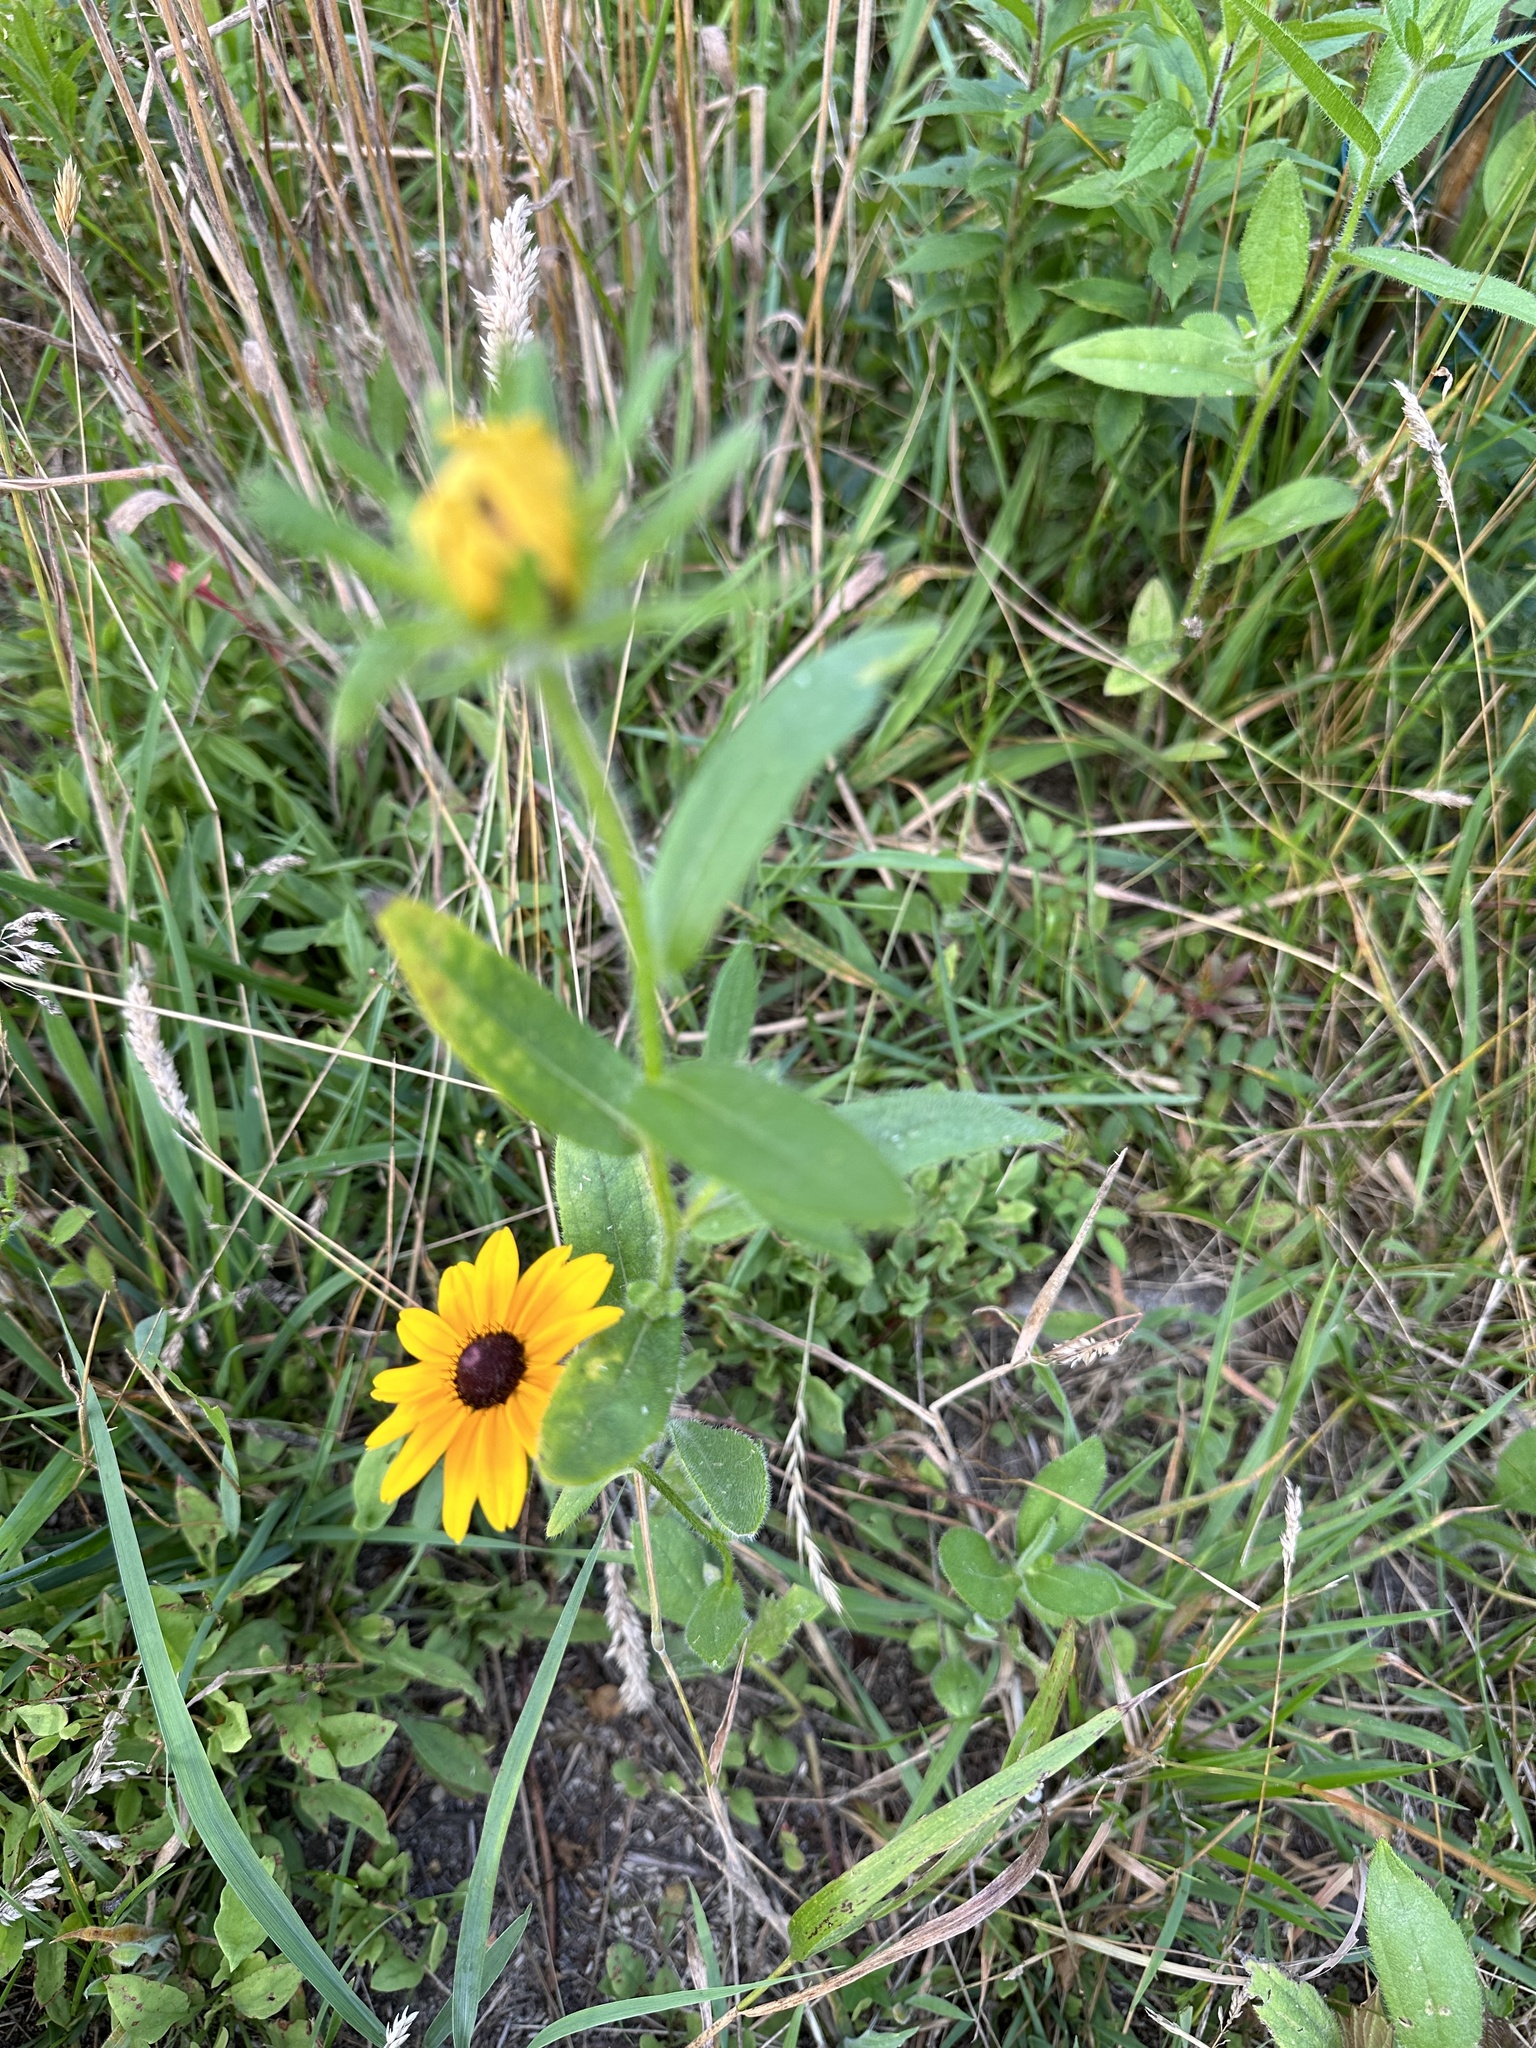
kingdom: Plantae
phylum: Tracheophyta
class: Magnoliopsida
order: Asterales
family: Asteraceae
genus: Rudbeckia
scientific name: Rudbeckia hirta
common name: Black-eyed-susan
